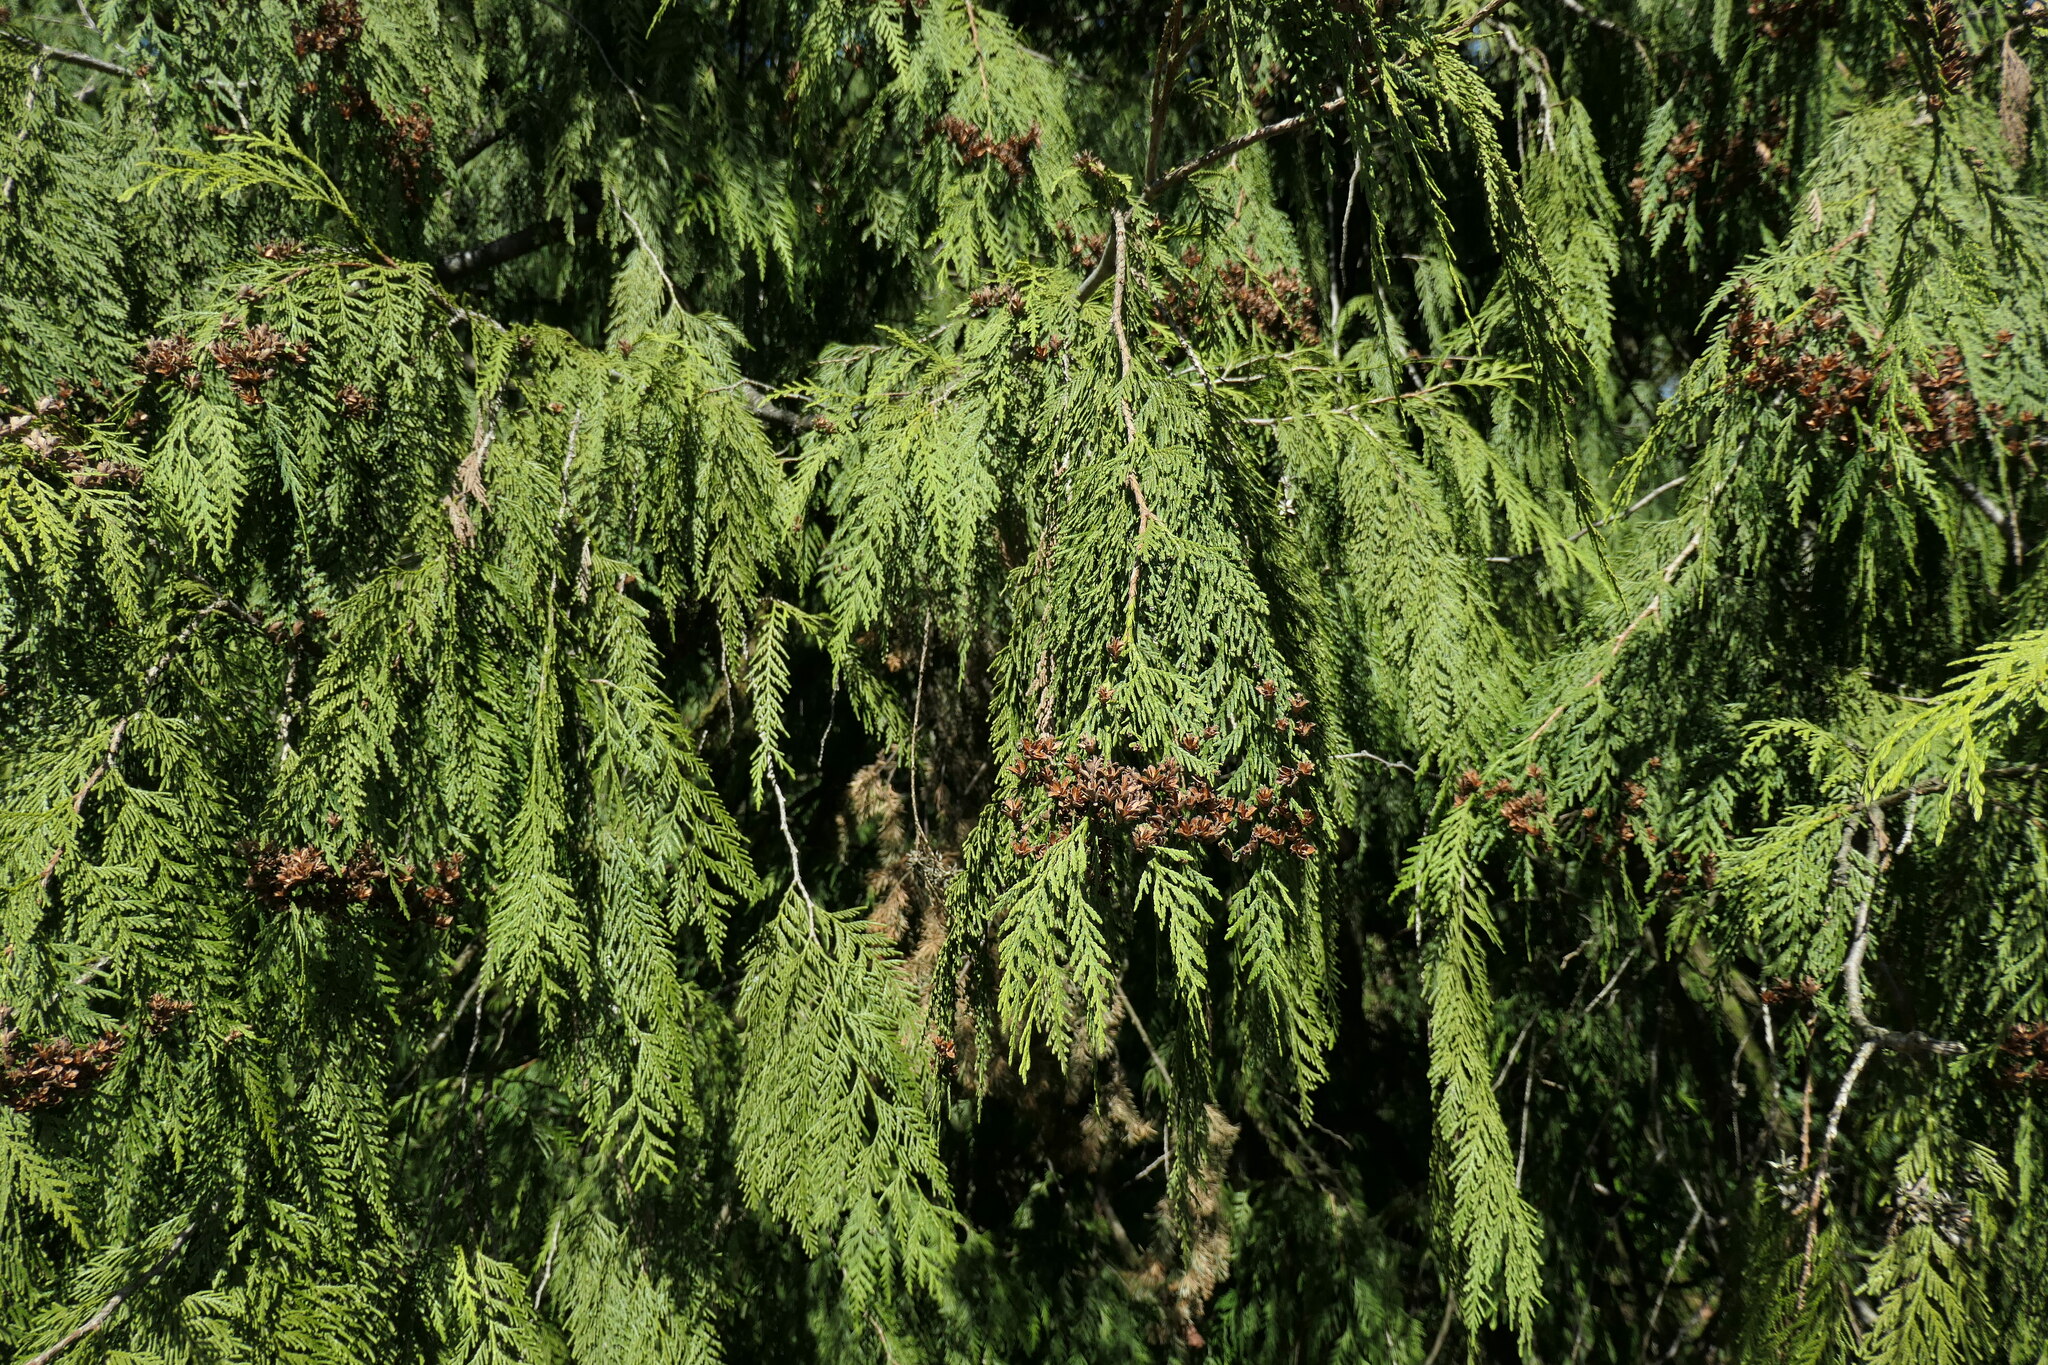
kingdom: Plantae
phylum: Tracheophyta
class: Pinopsida
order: Pinales
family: Cupressaceae
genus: Thuja
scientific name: Thuja plicata
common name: Western red-cedar
